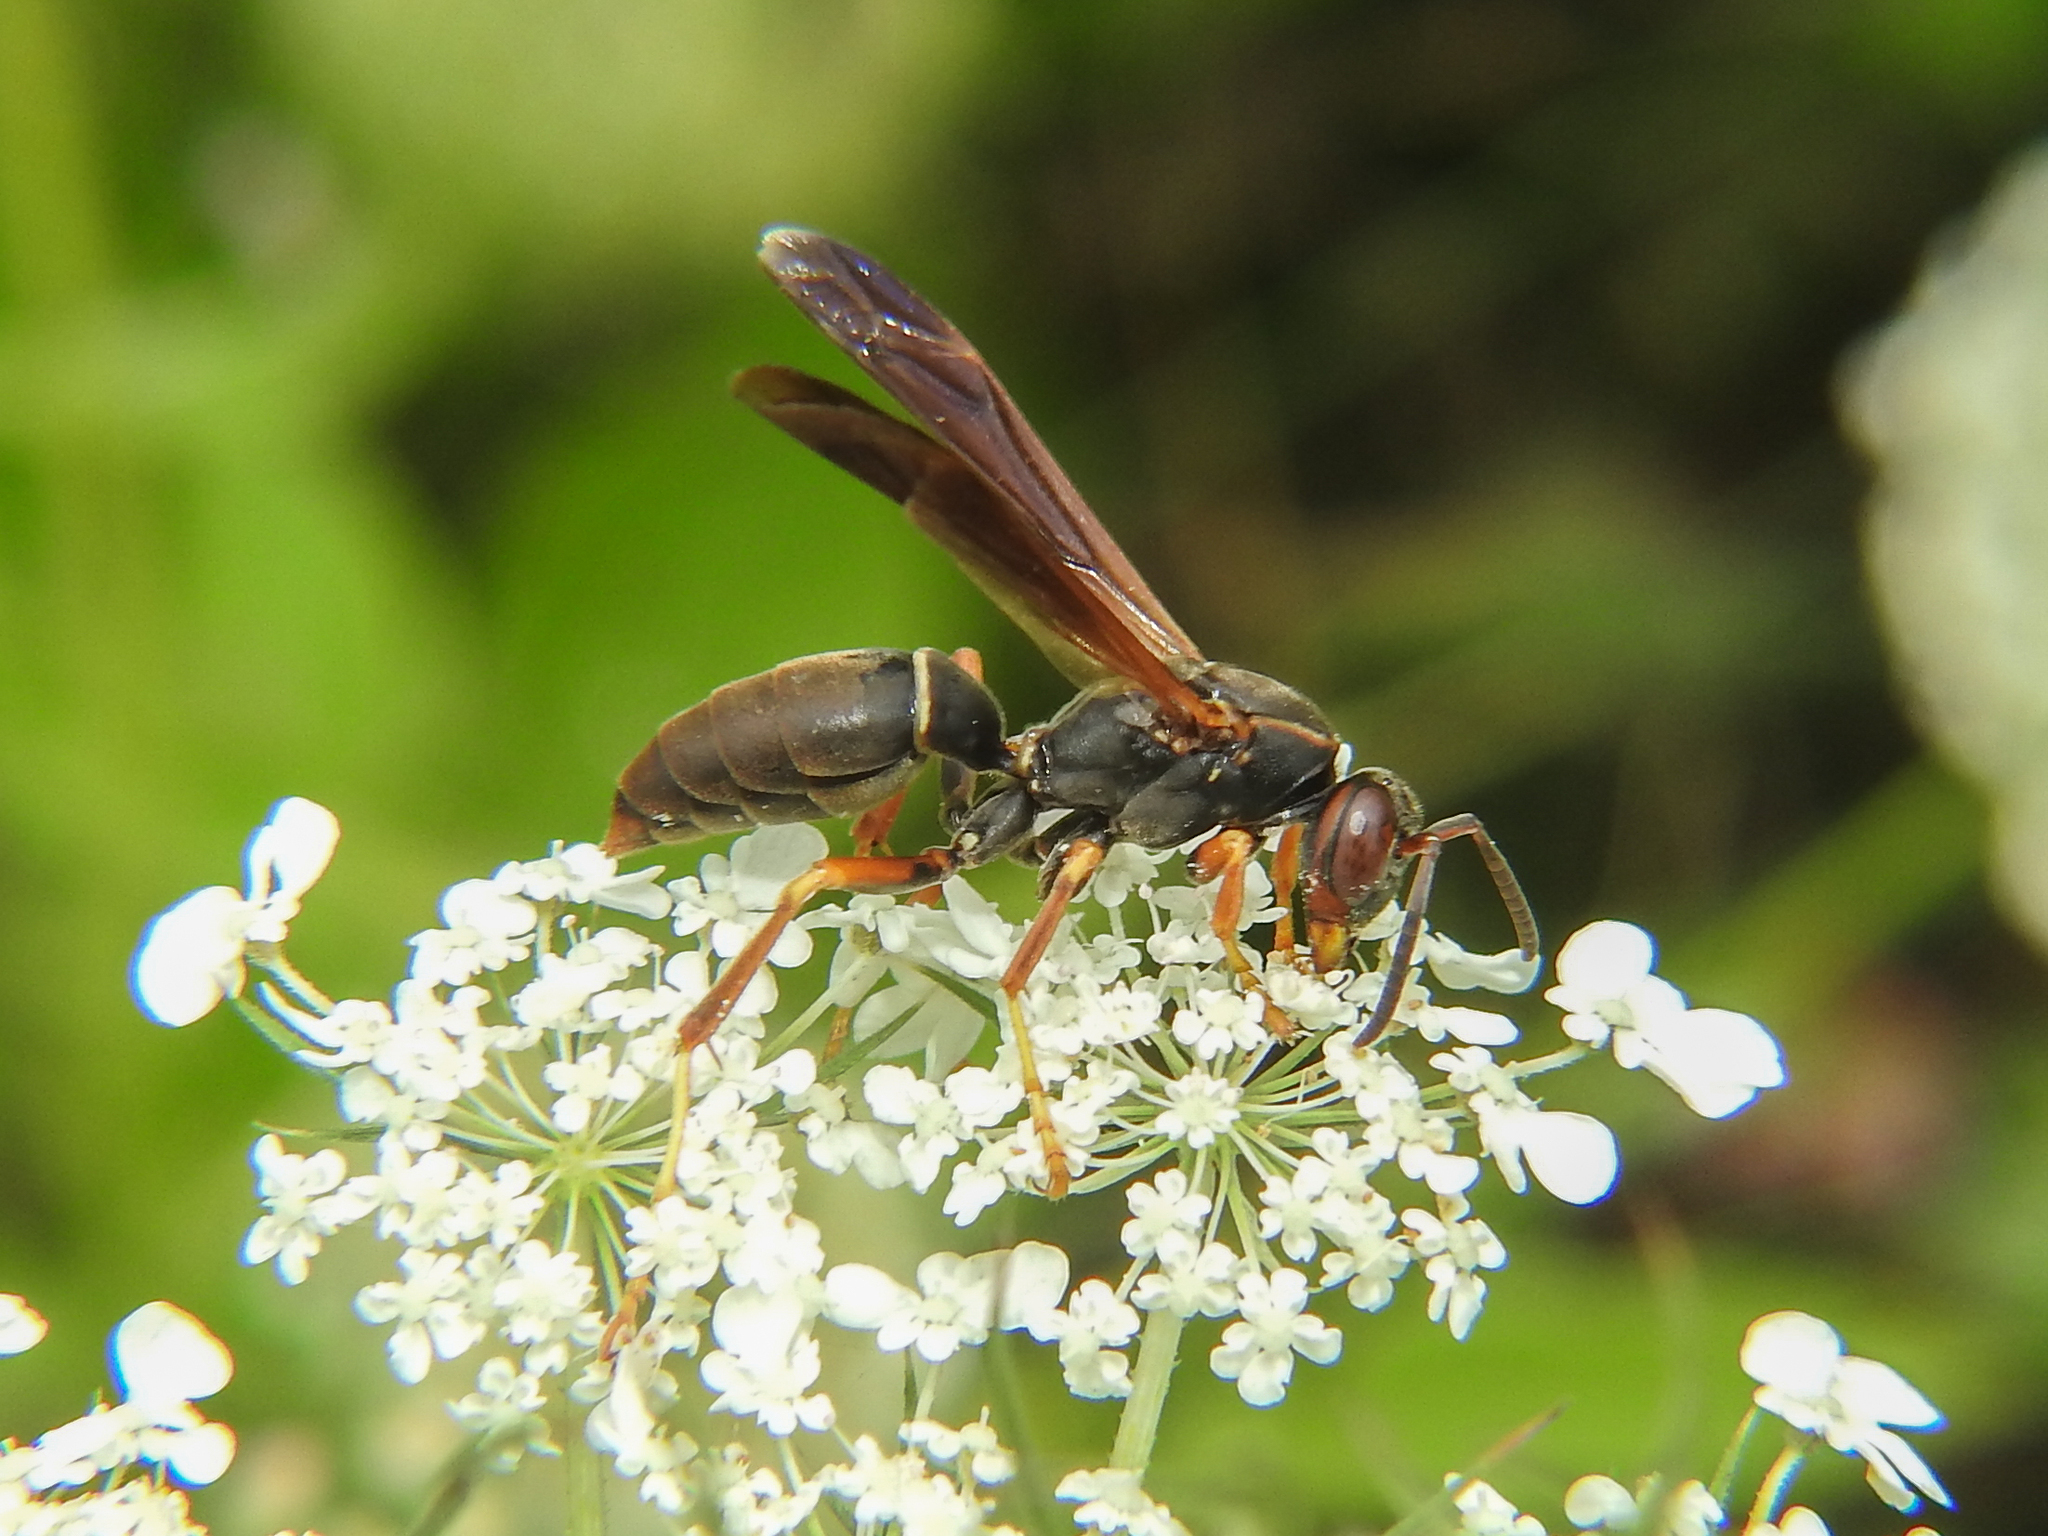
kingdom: Animalia
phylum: Arthropoda
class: Insecta
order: Hymenoptera
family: Eumenidae
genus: Polistes
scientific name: Polistes fuscatus
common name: Dark paper wasp
